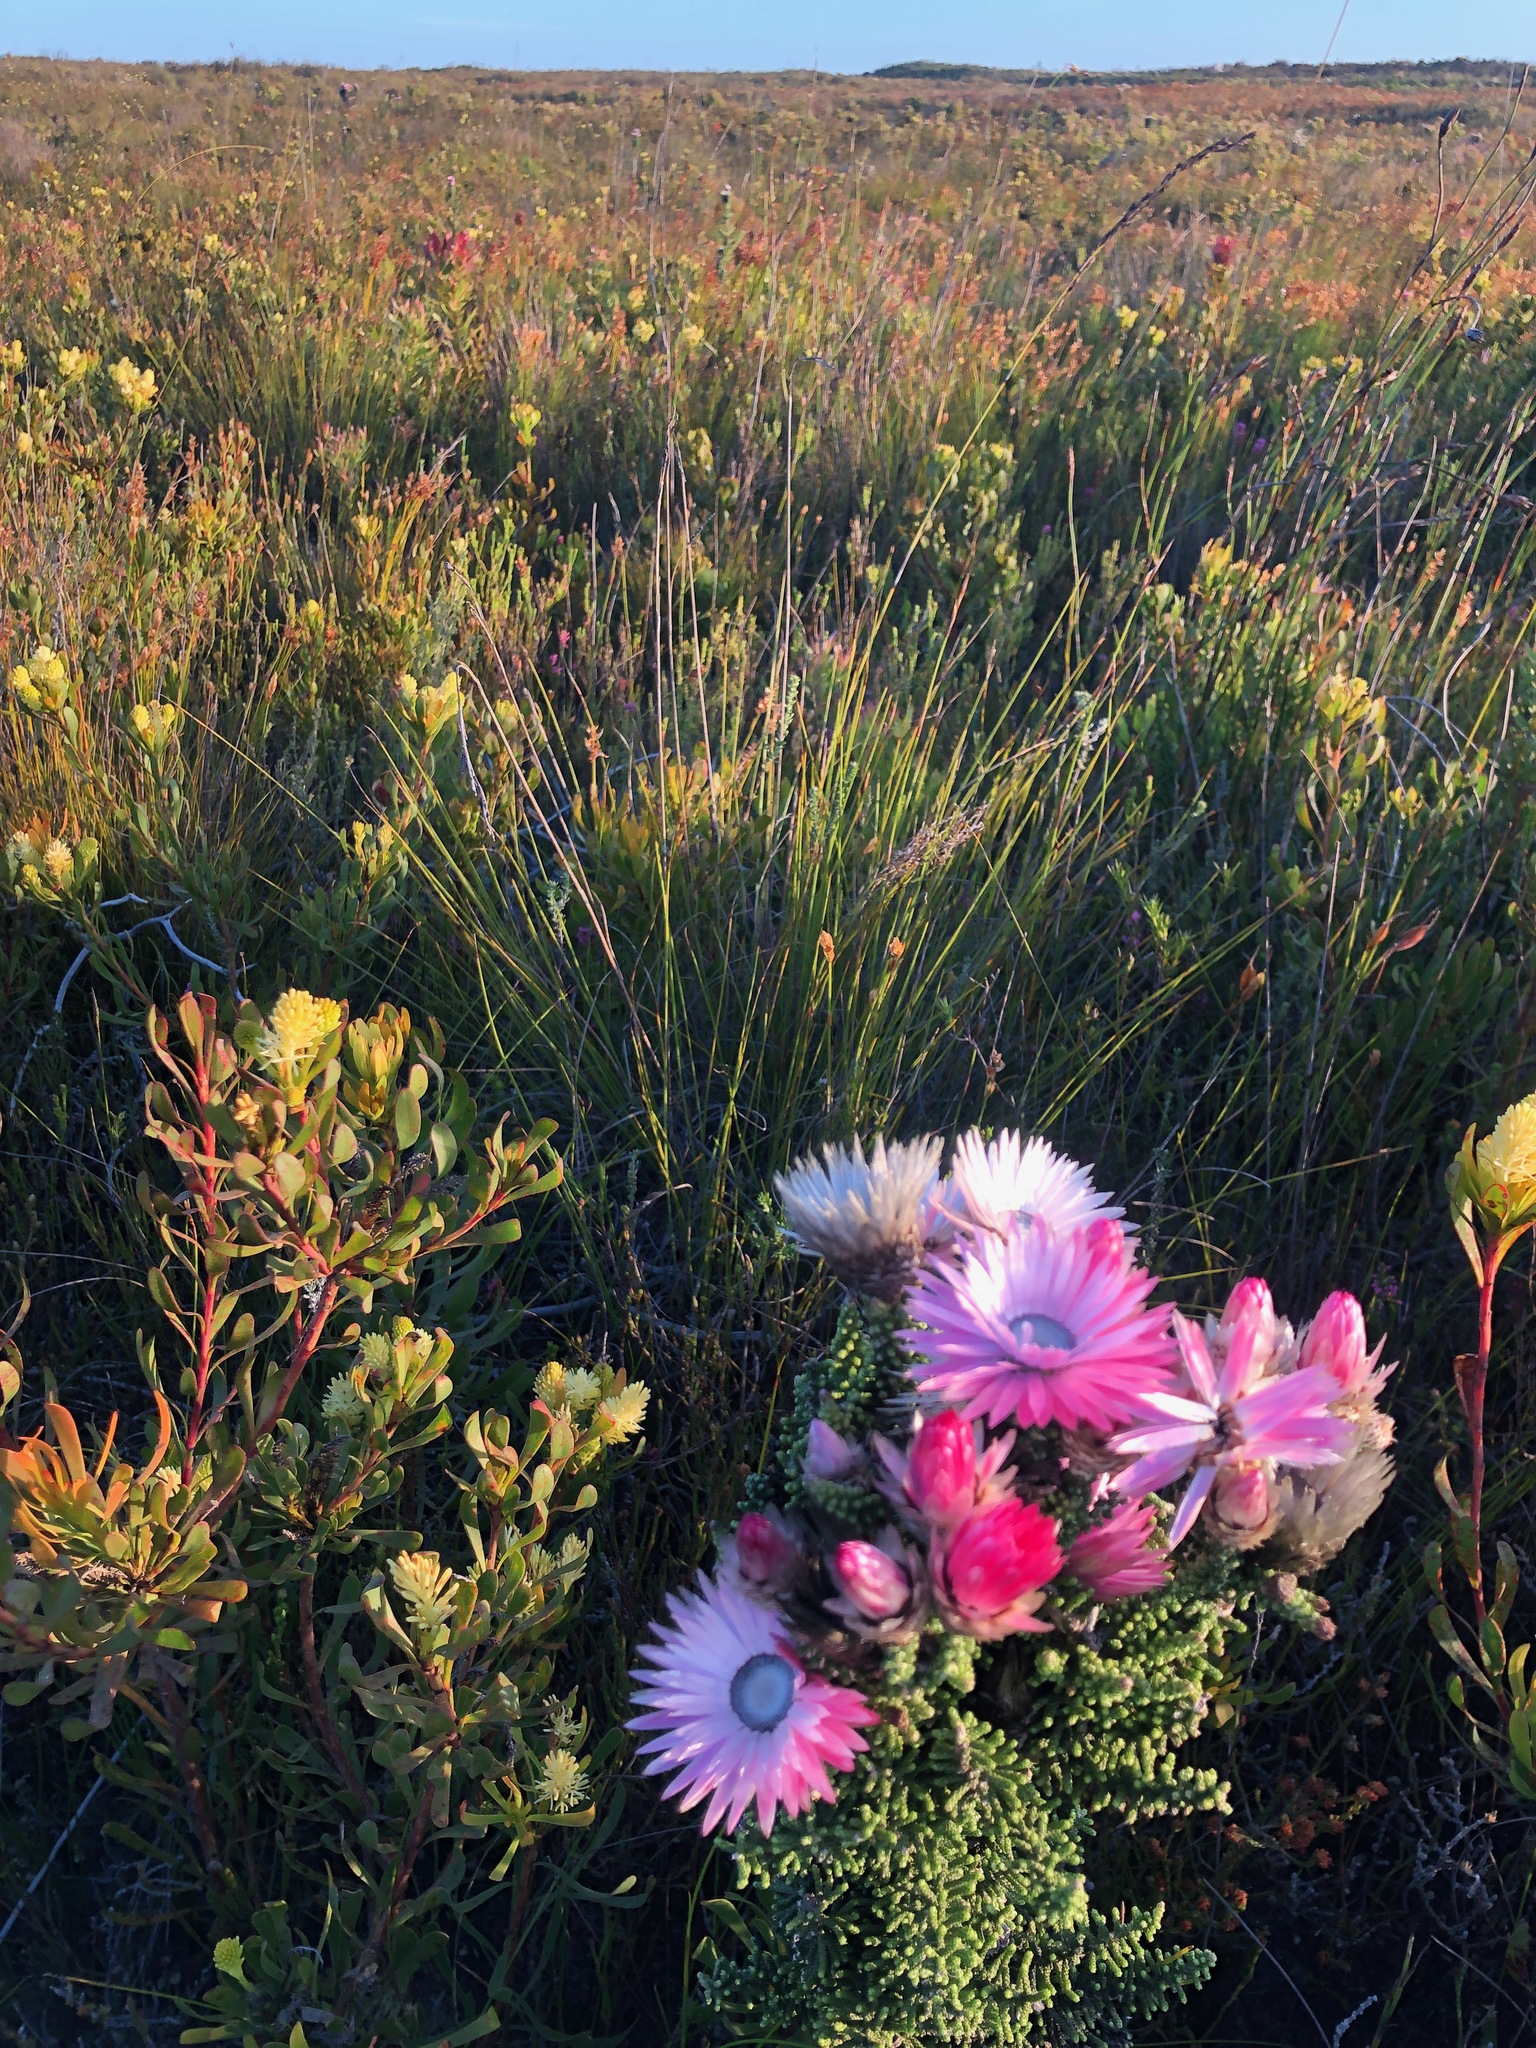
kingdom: Plantae
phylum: Tracheophyta
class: Magnoliopsida
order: Asterales
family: Asteraceae
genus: Phaenocoma
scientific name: Phaenocoma prolifera
